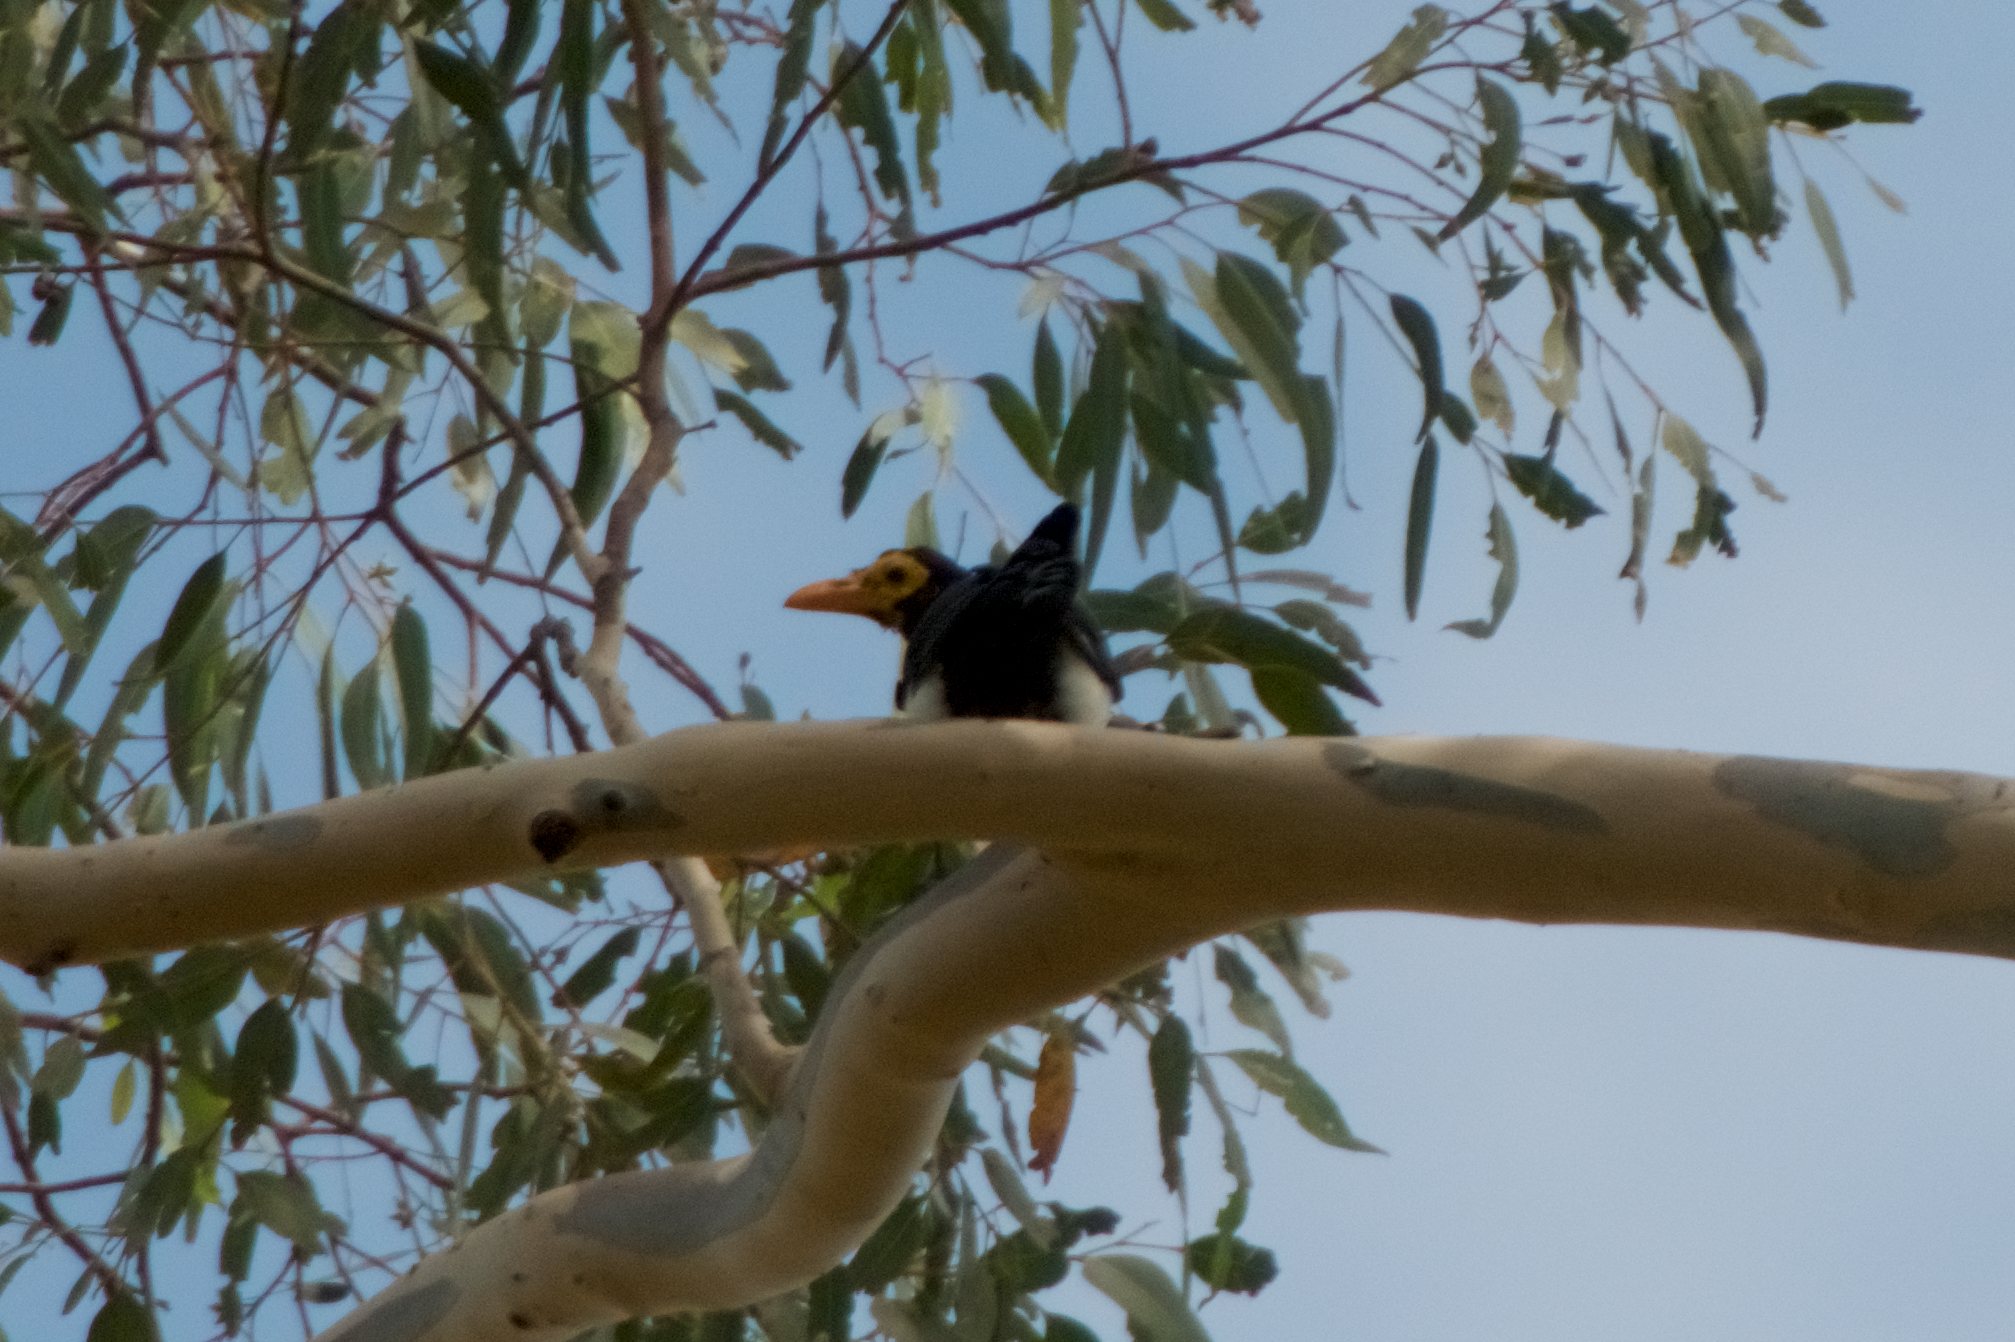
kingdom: Animalia
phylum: Chordata
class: Aves
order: Passeriformes
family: Corvidae
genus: Pica
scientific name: Pica nuttalli
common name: Yellow-billed magpie
